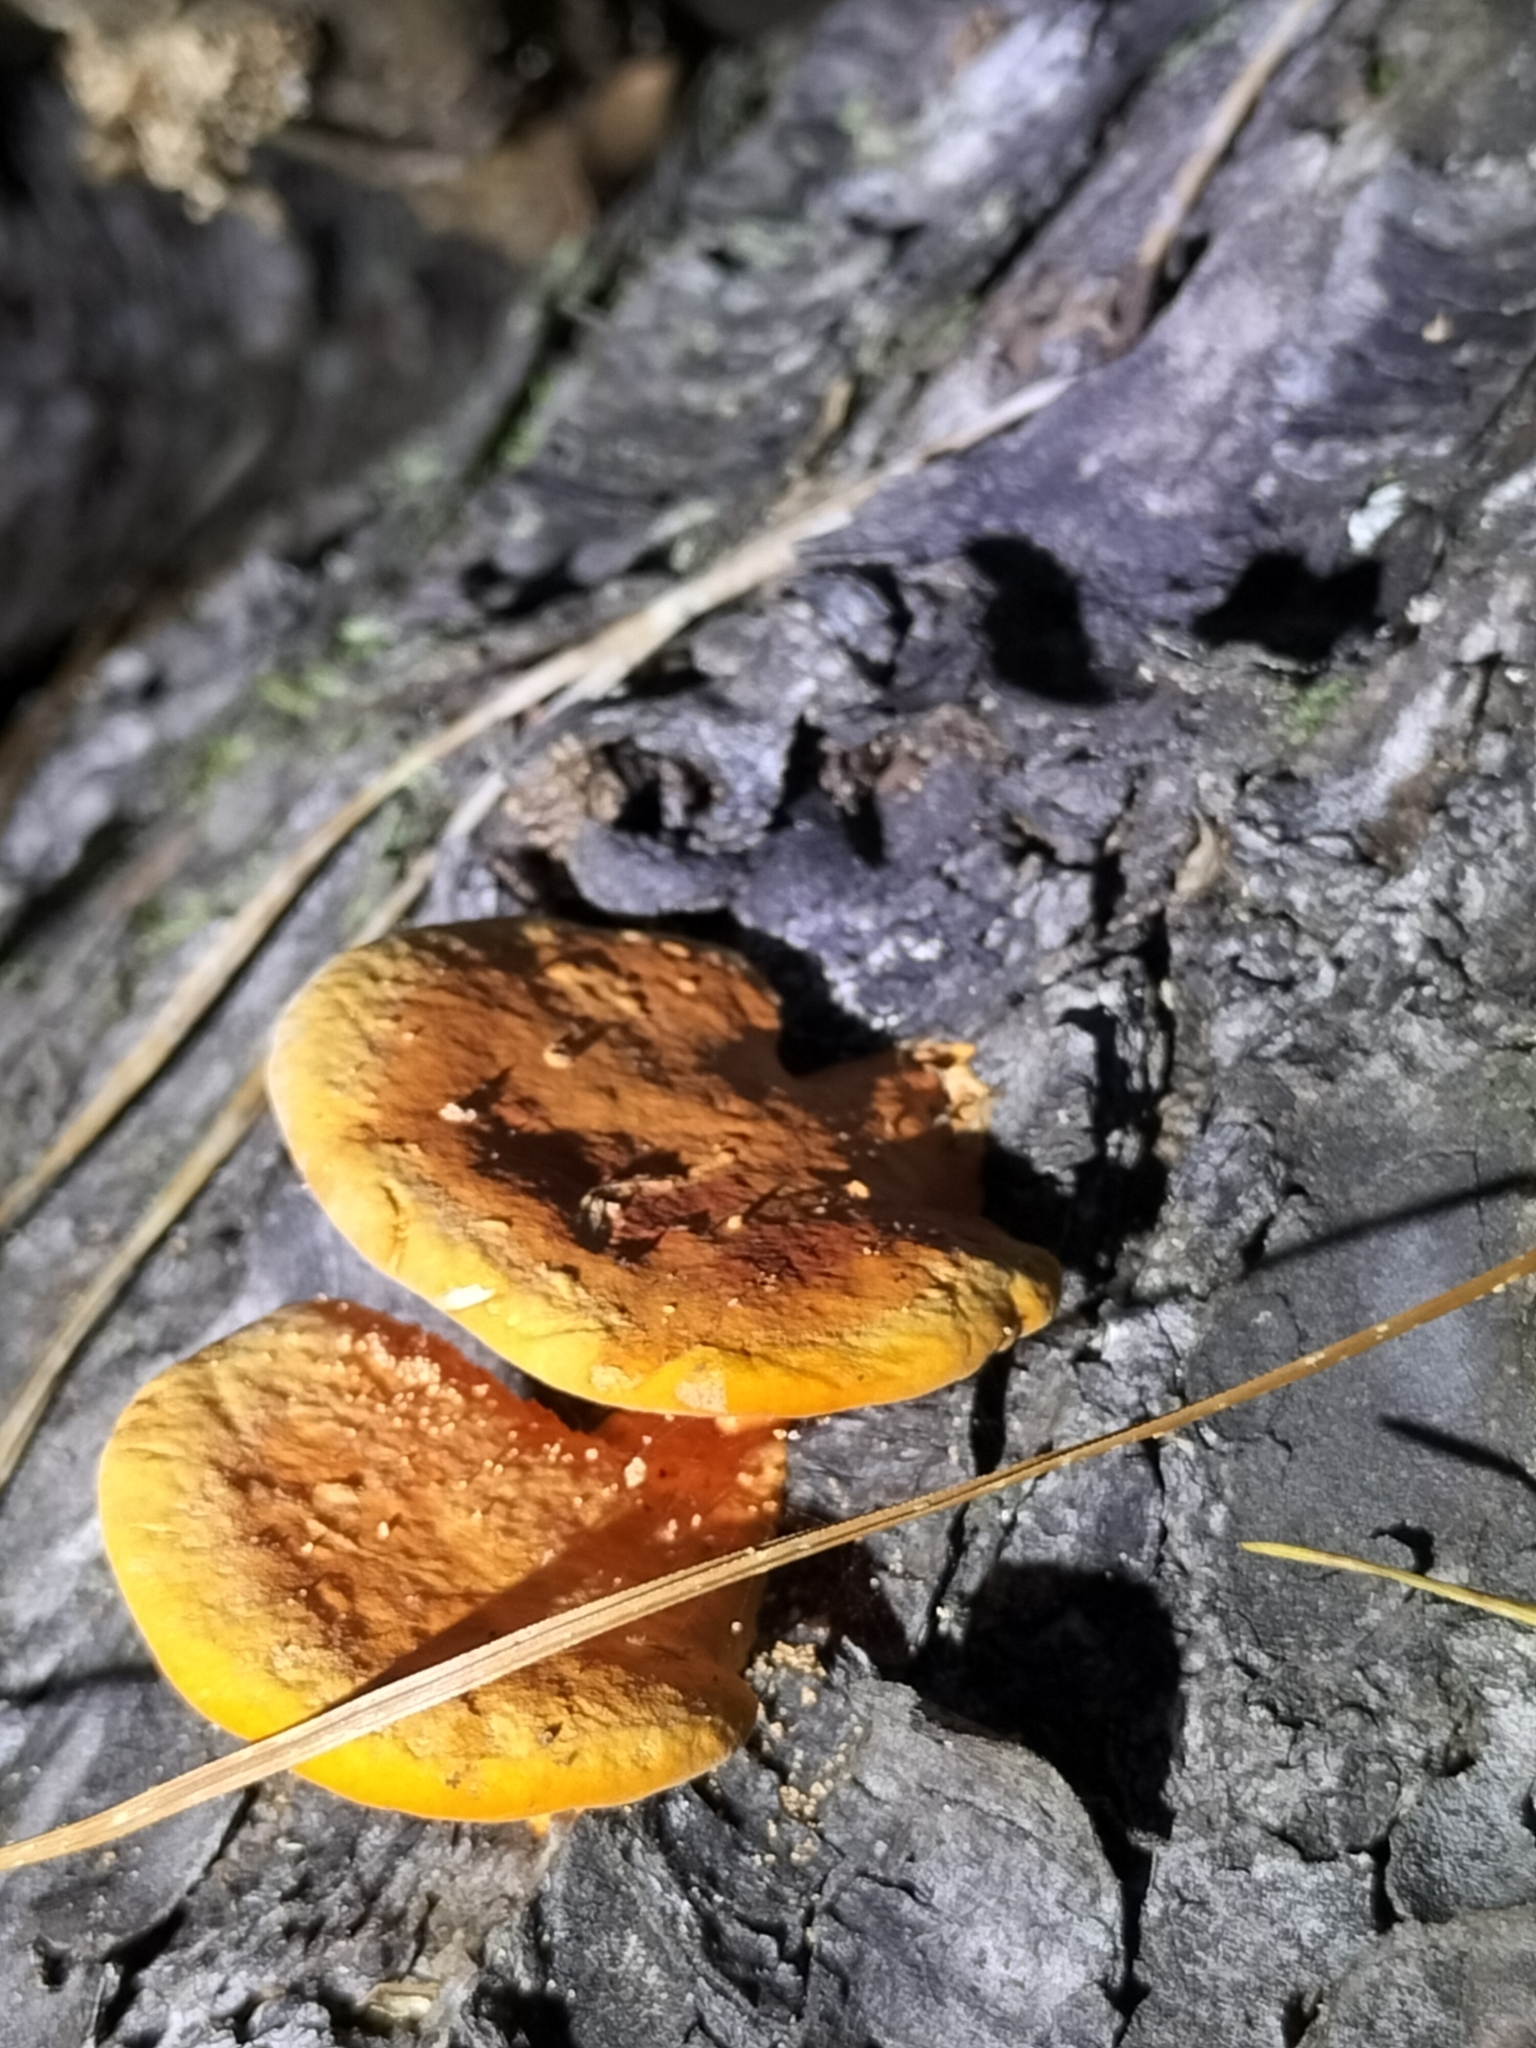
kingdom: Fungi
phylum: Basidiomycota
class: Agaricomycetes
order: Polyporales
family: Polyporaceae
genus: Trametes
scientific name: Trametes coccinea
